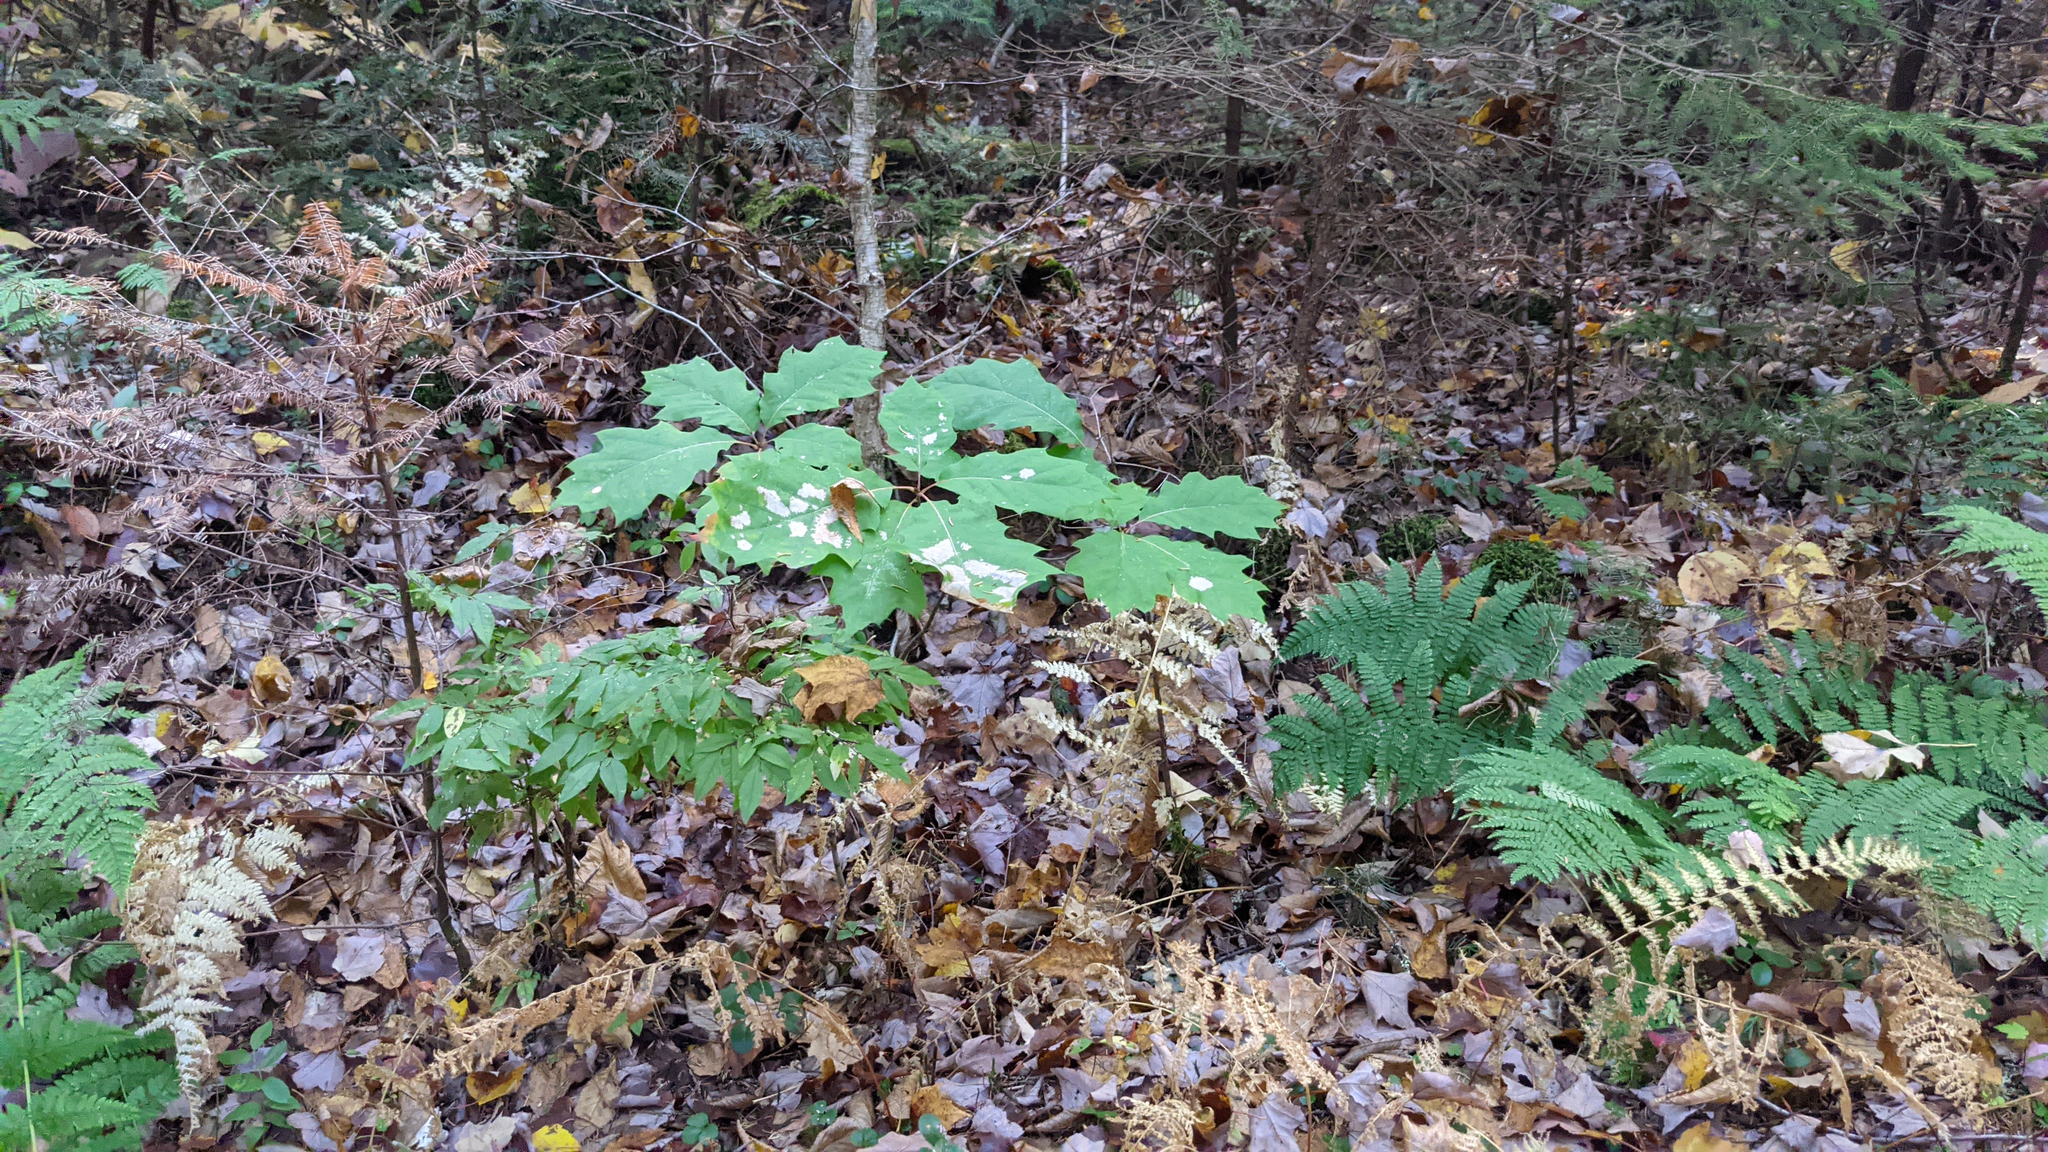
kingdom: Plantae
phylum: Tracheophyta
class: Magnoliopsida
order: Fagales
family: Fagaceae
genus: Quercus
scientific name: Quercus rubra
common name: Red oak
